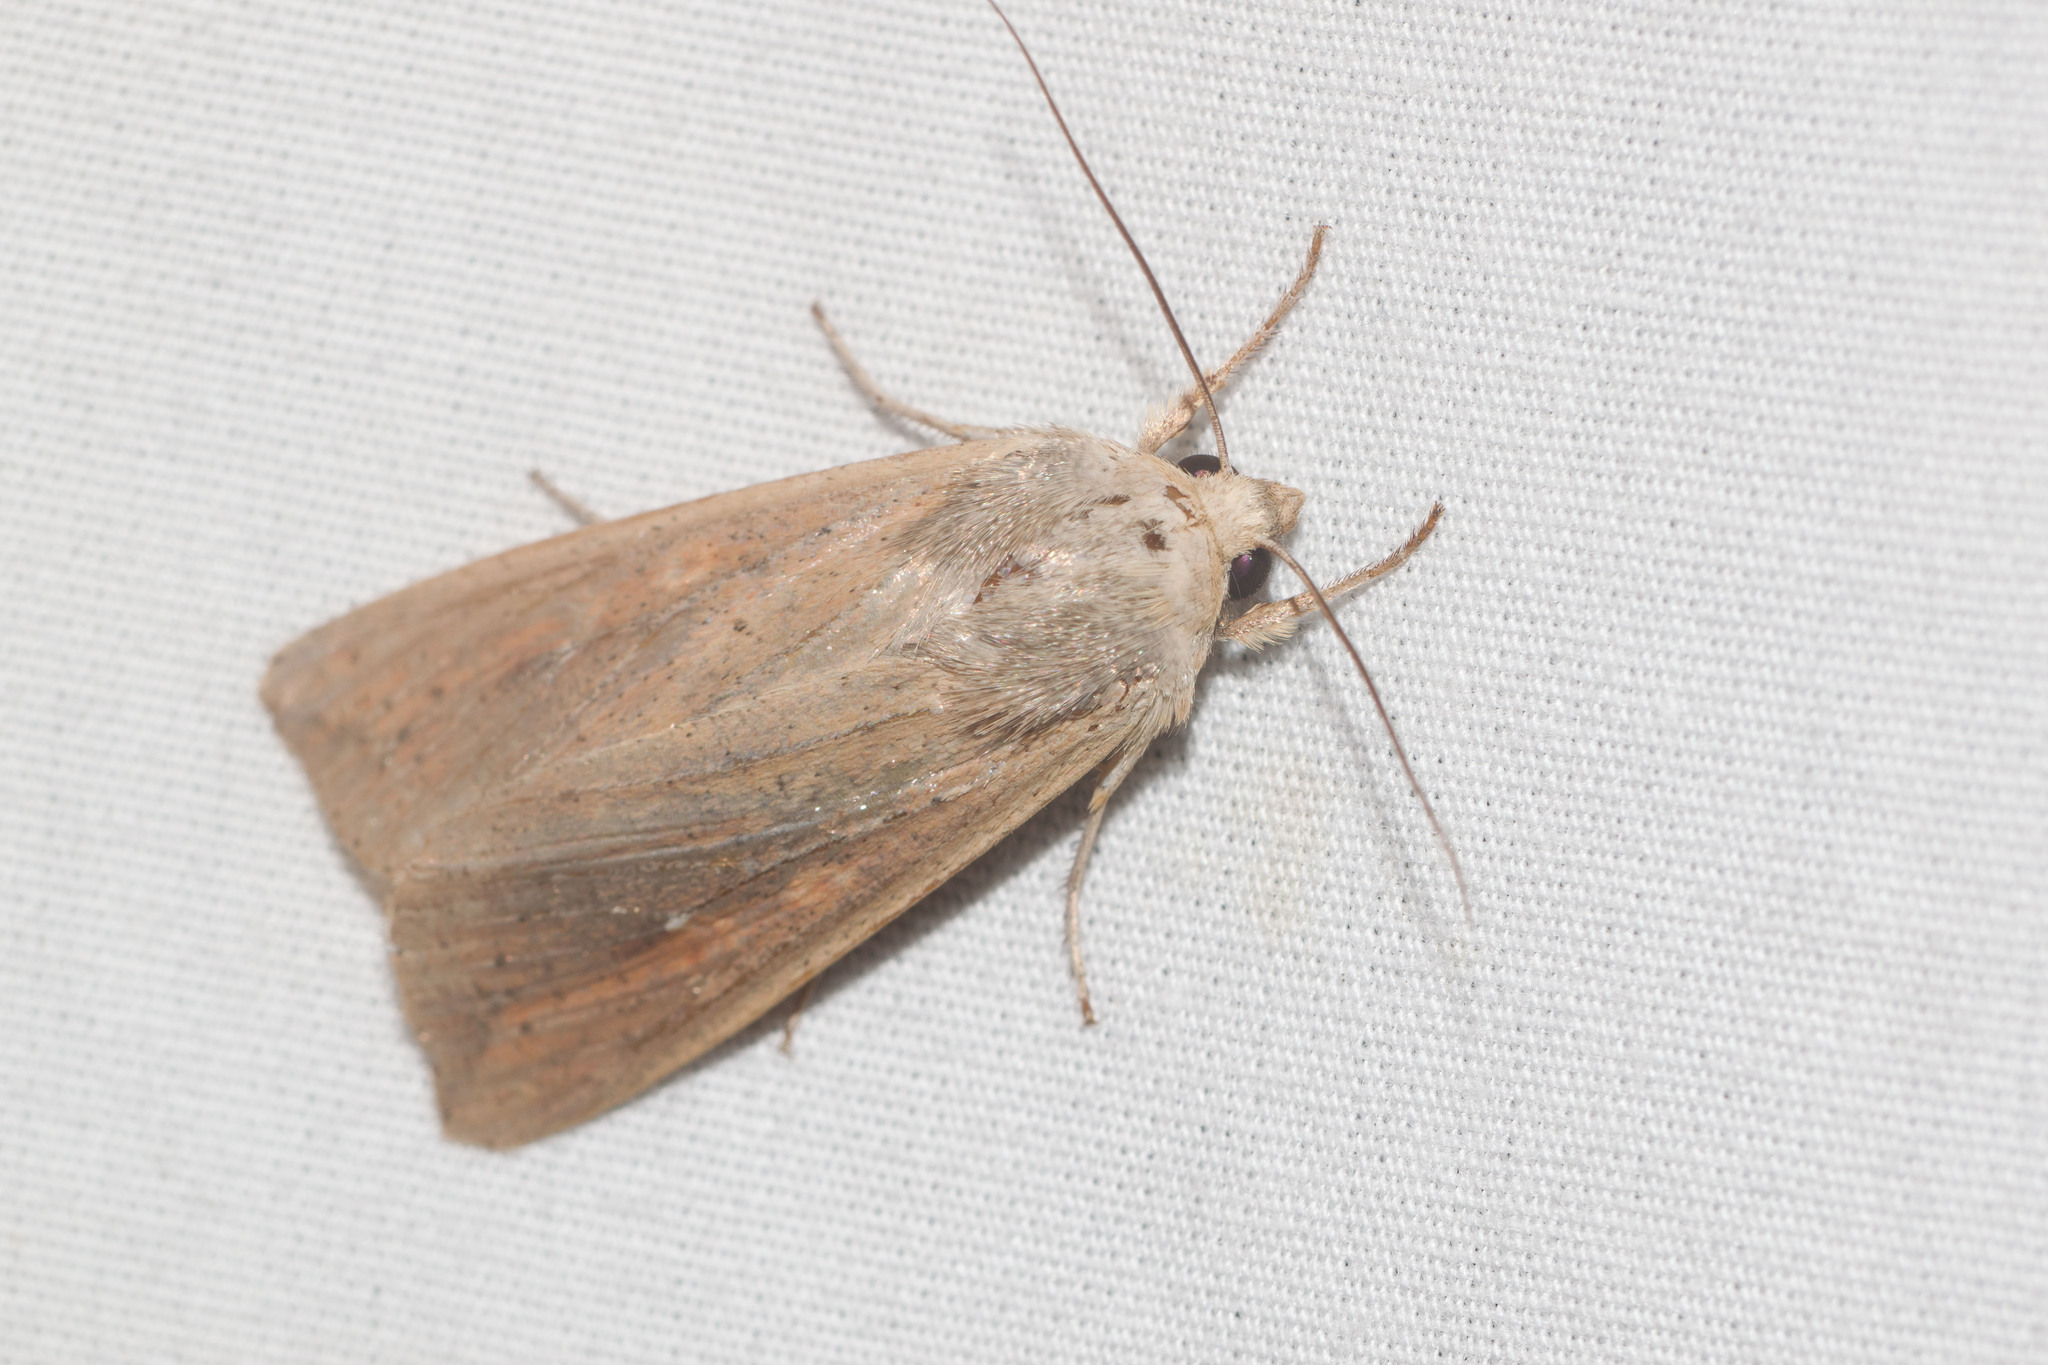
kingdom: Animalia
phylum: Arthropoda
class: Insecta
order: Lepidoptera
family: Noctuidae
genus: Mythimna
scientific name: Mythimna unipuncta
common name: White-speck
